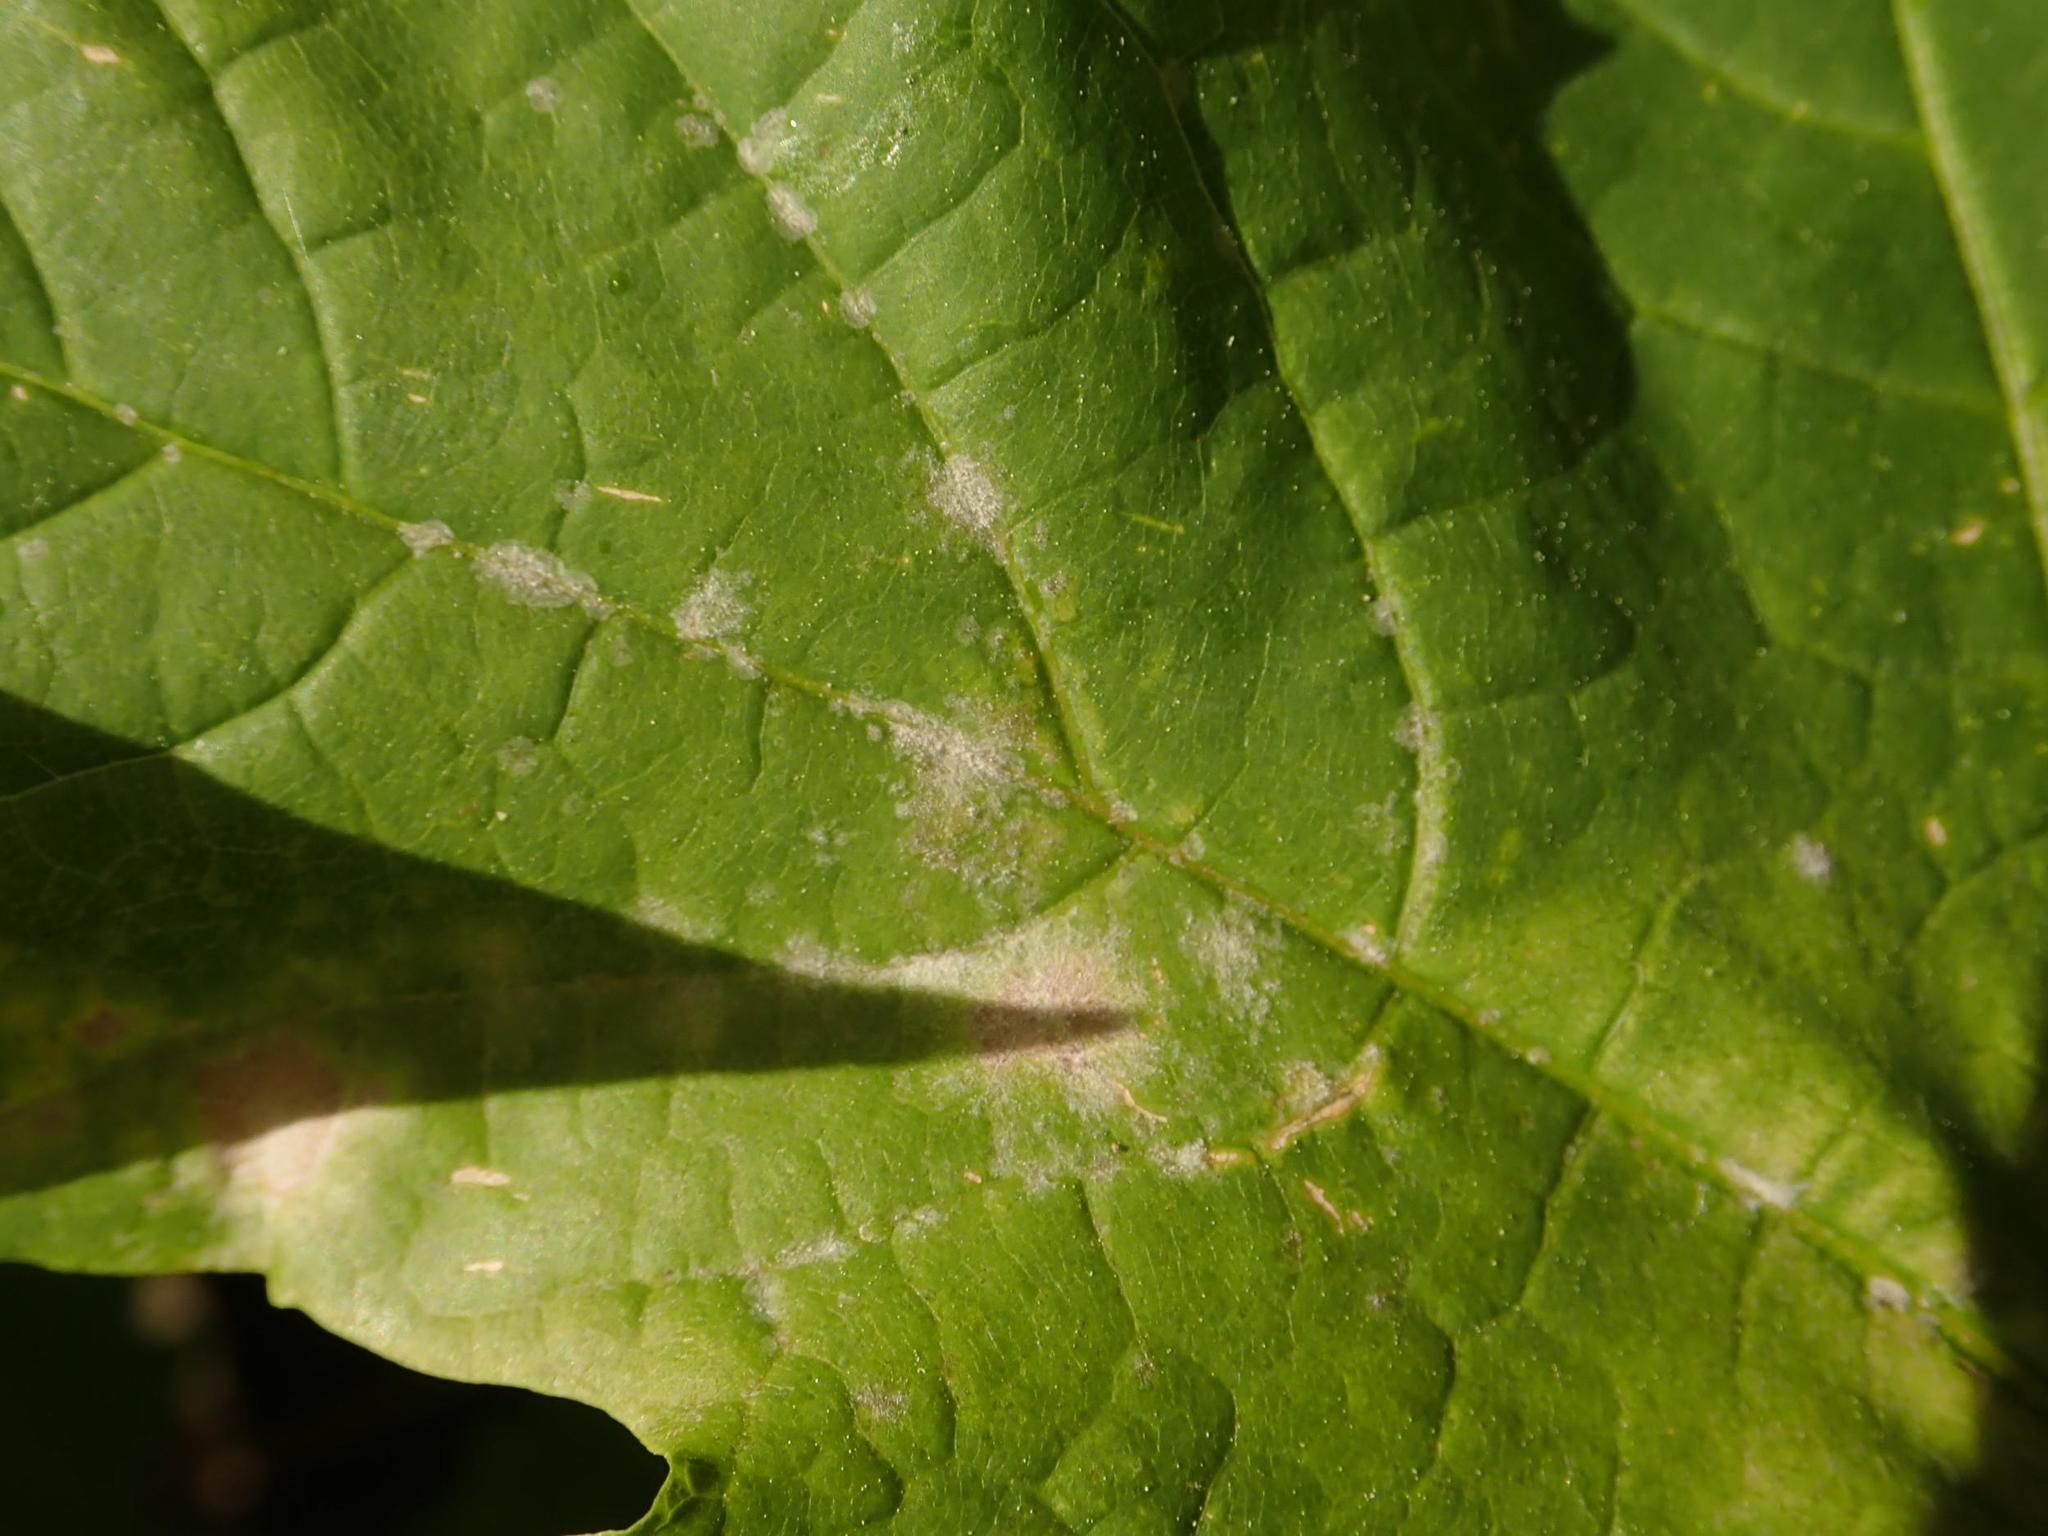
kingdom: Fungi
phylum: Ascomycota
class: Leotiomycetes
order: Helotiales
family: Erysiphaceae
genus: Sawadaea
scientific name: Sawadaea tulasnei
